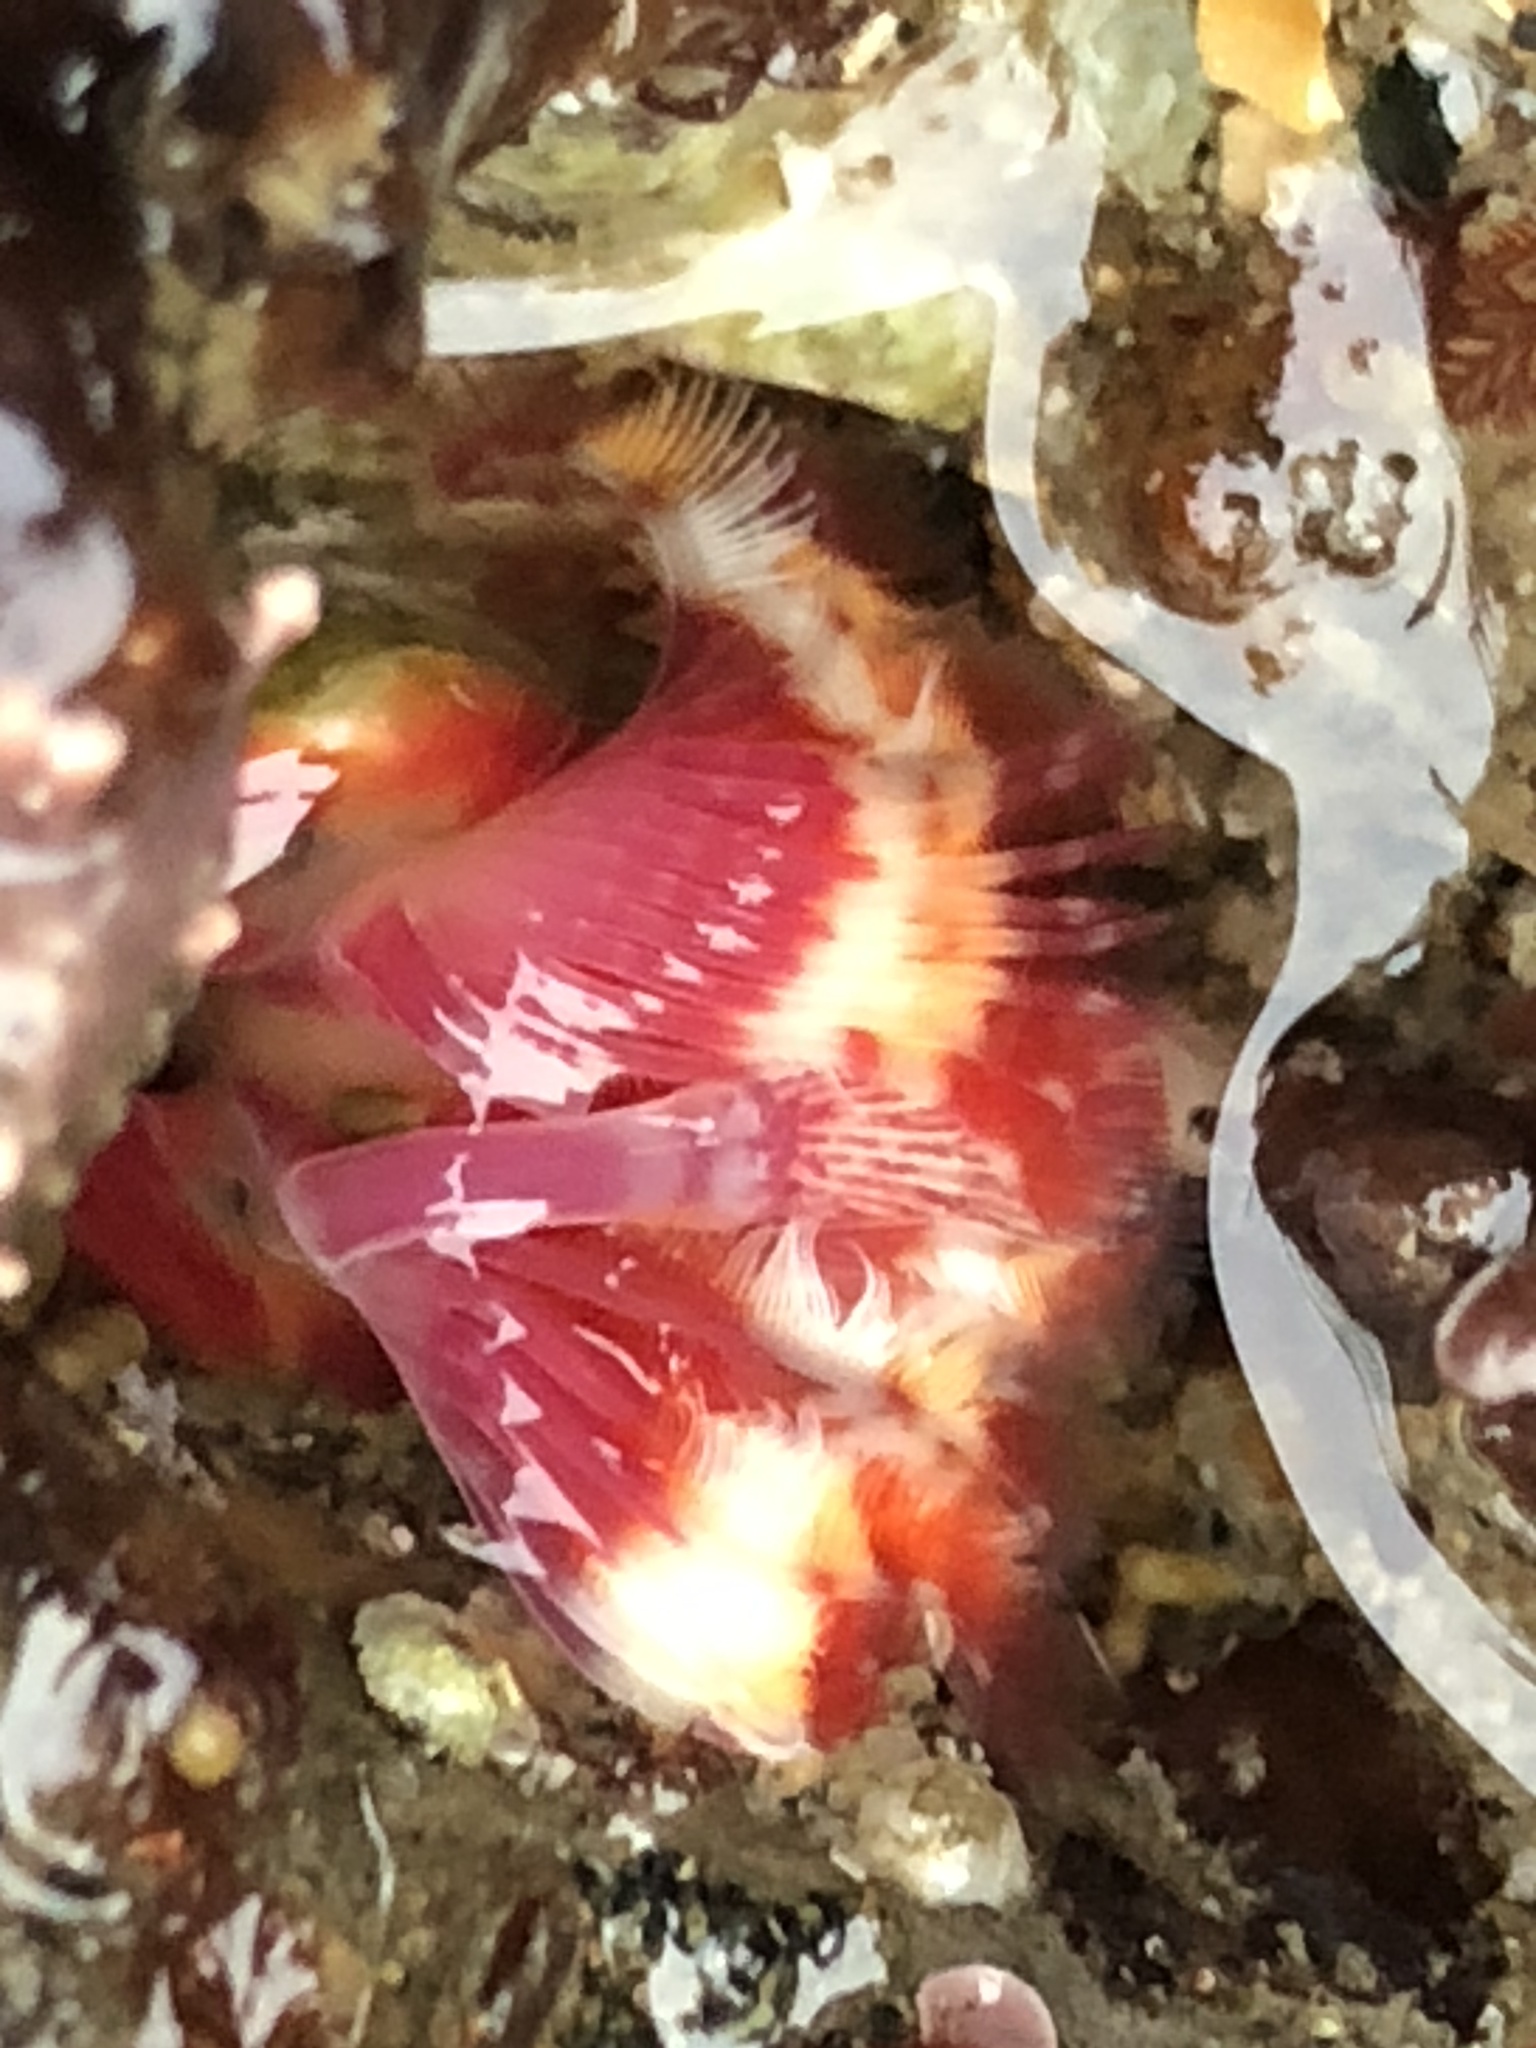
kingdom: Animalia
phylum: Annelida
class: Polychaeta
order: Sabellida
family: Serpulidae
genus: Serpula
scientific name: Serpula columbiana
